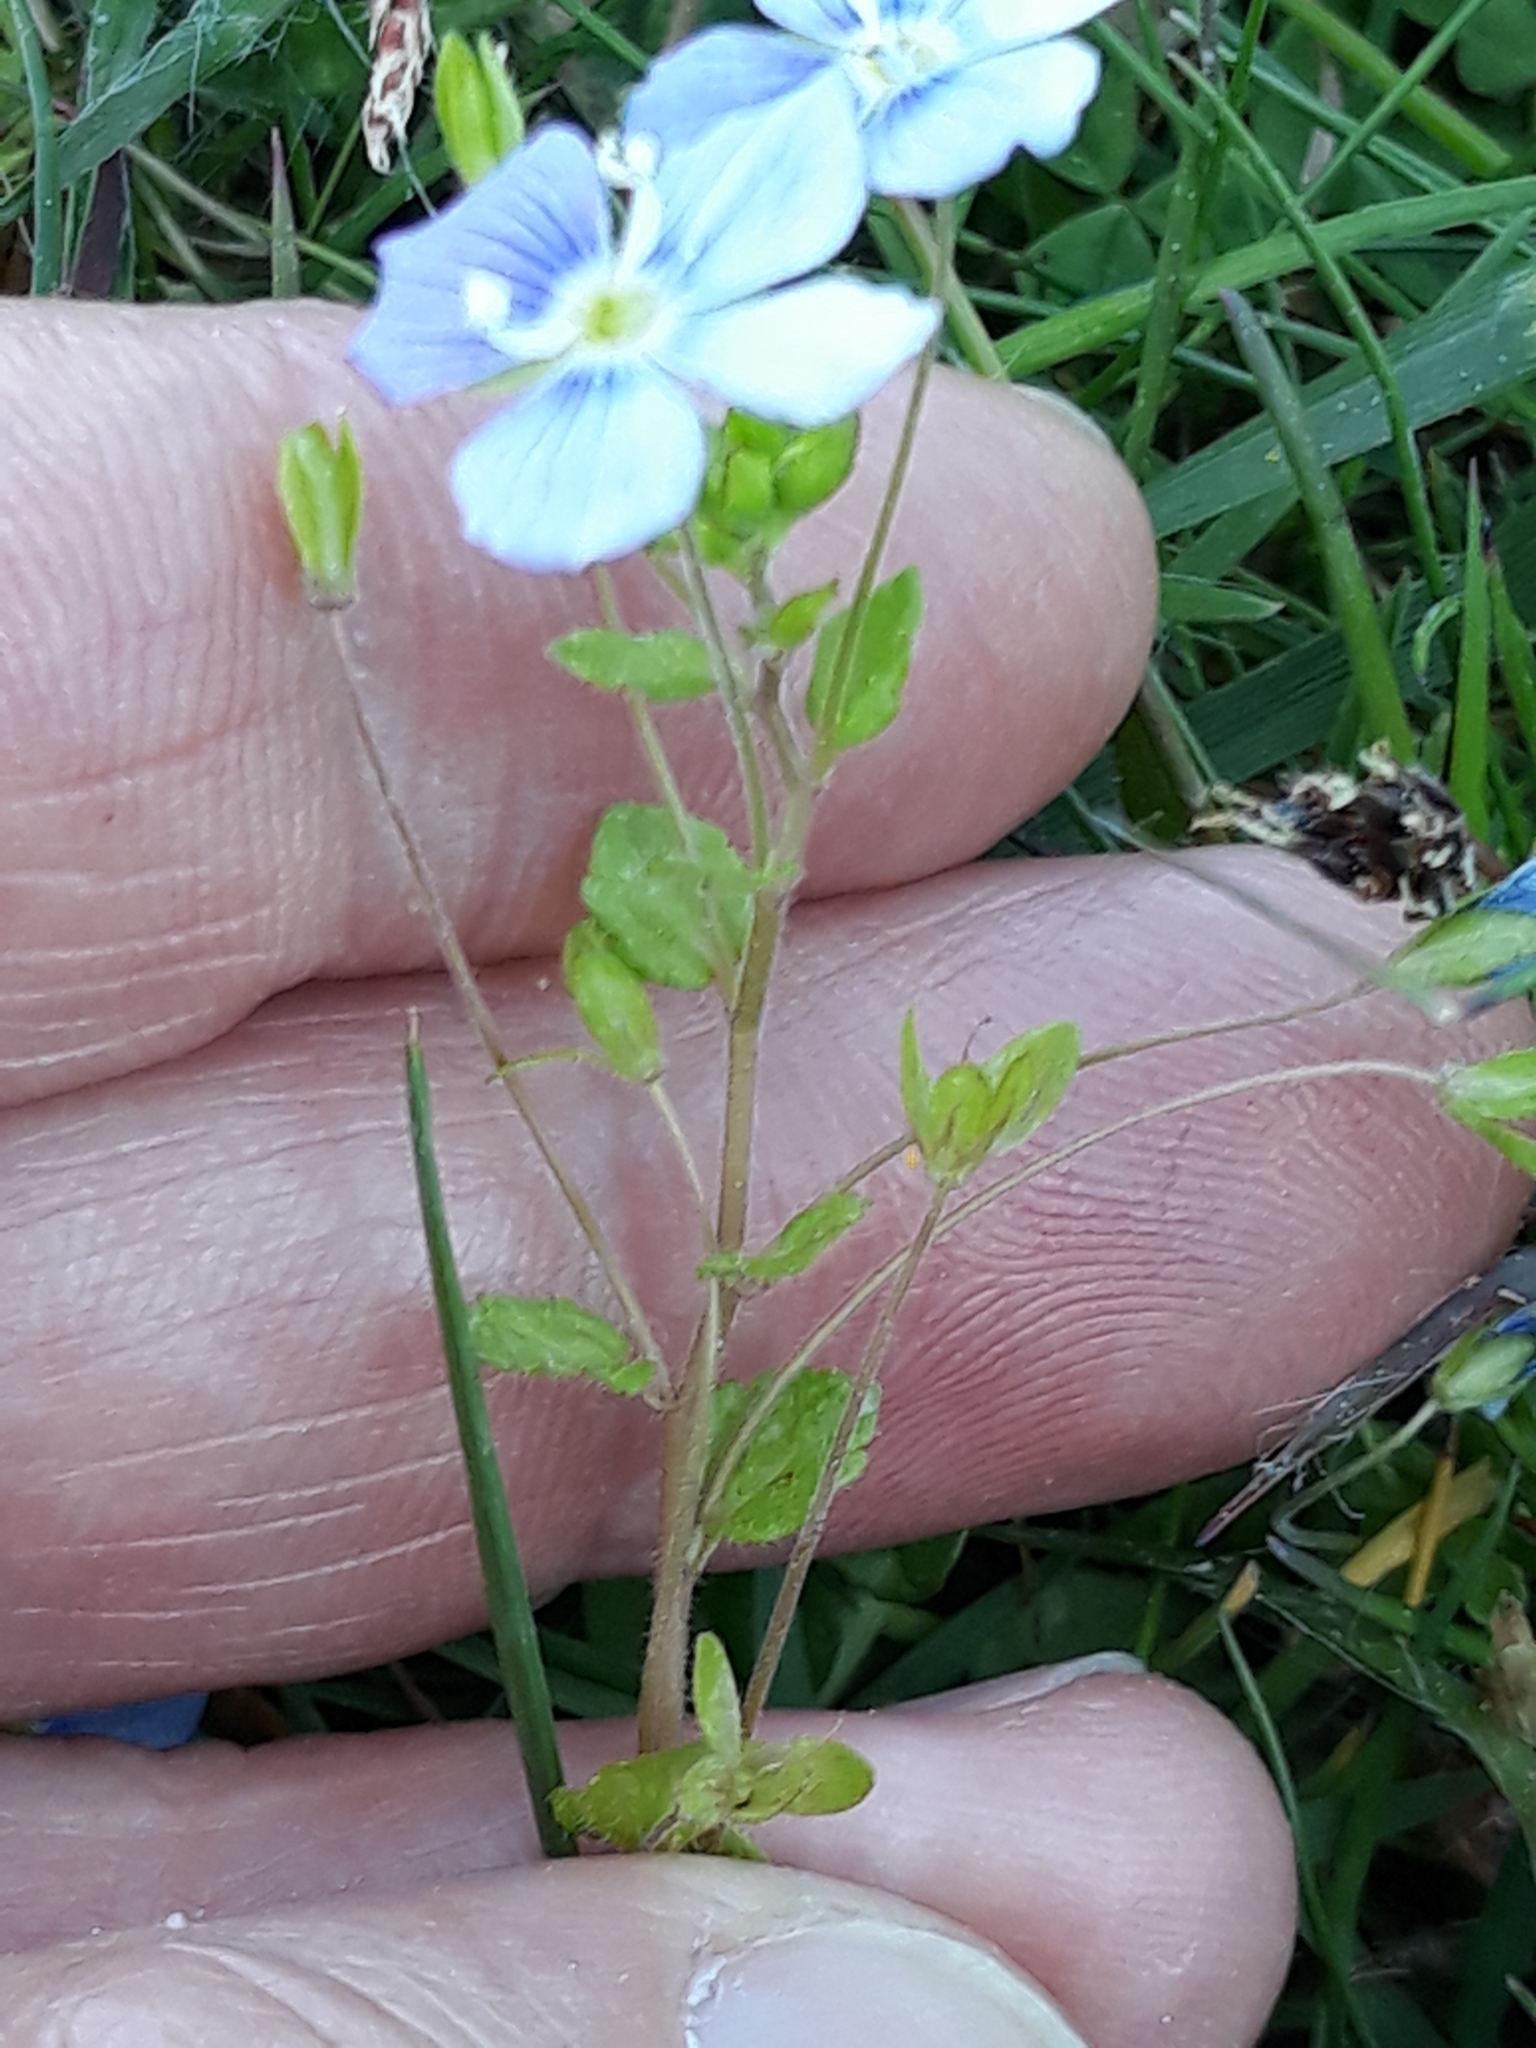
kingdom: Plantae
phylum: Tracheophyta
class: Magnoliopsida
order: Lamiales
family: Plantaginaceae
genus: Veronica
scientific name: Veronica filiformis
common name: Slender speedwell
